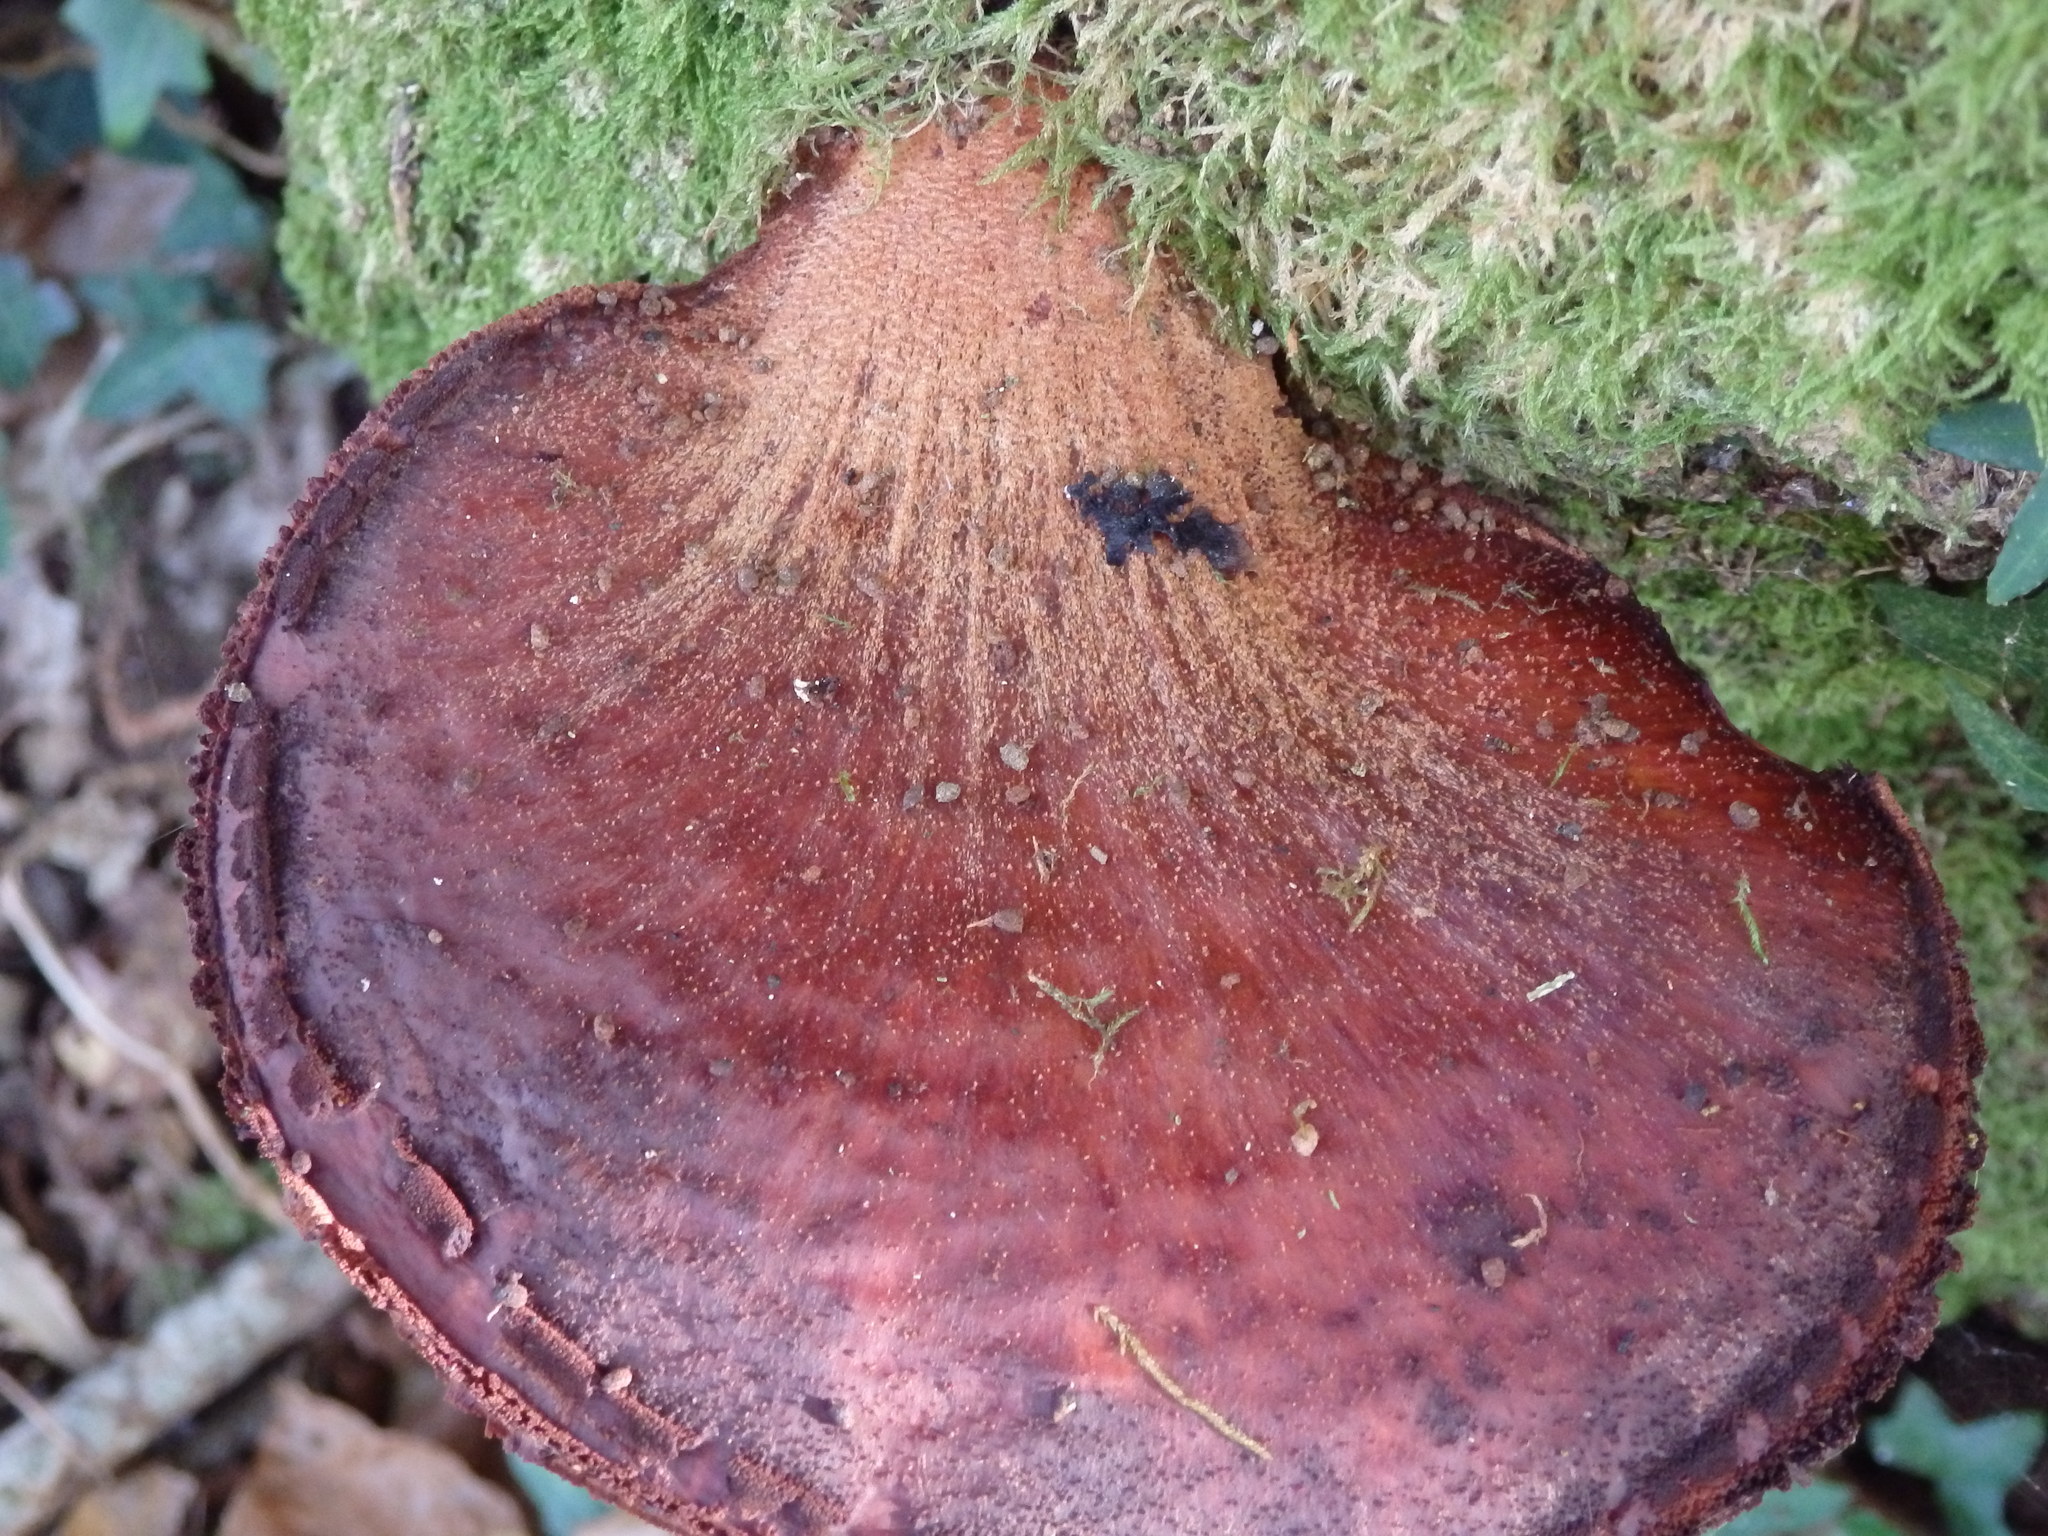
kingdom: Fungi
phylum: Basidiomycota
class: Agaricomycetes
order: Agaricales
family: Fistulinaceae
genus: Fistulina
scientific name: Fistulina hepatica
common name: Beef-steak fungus
